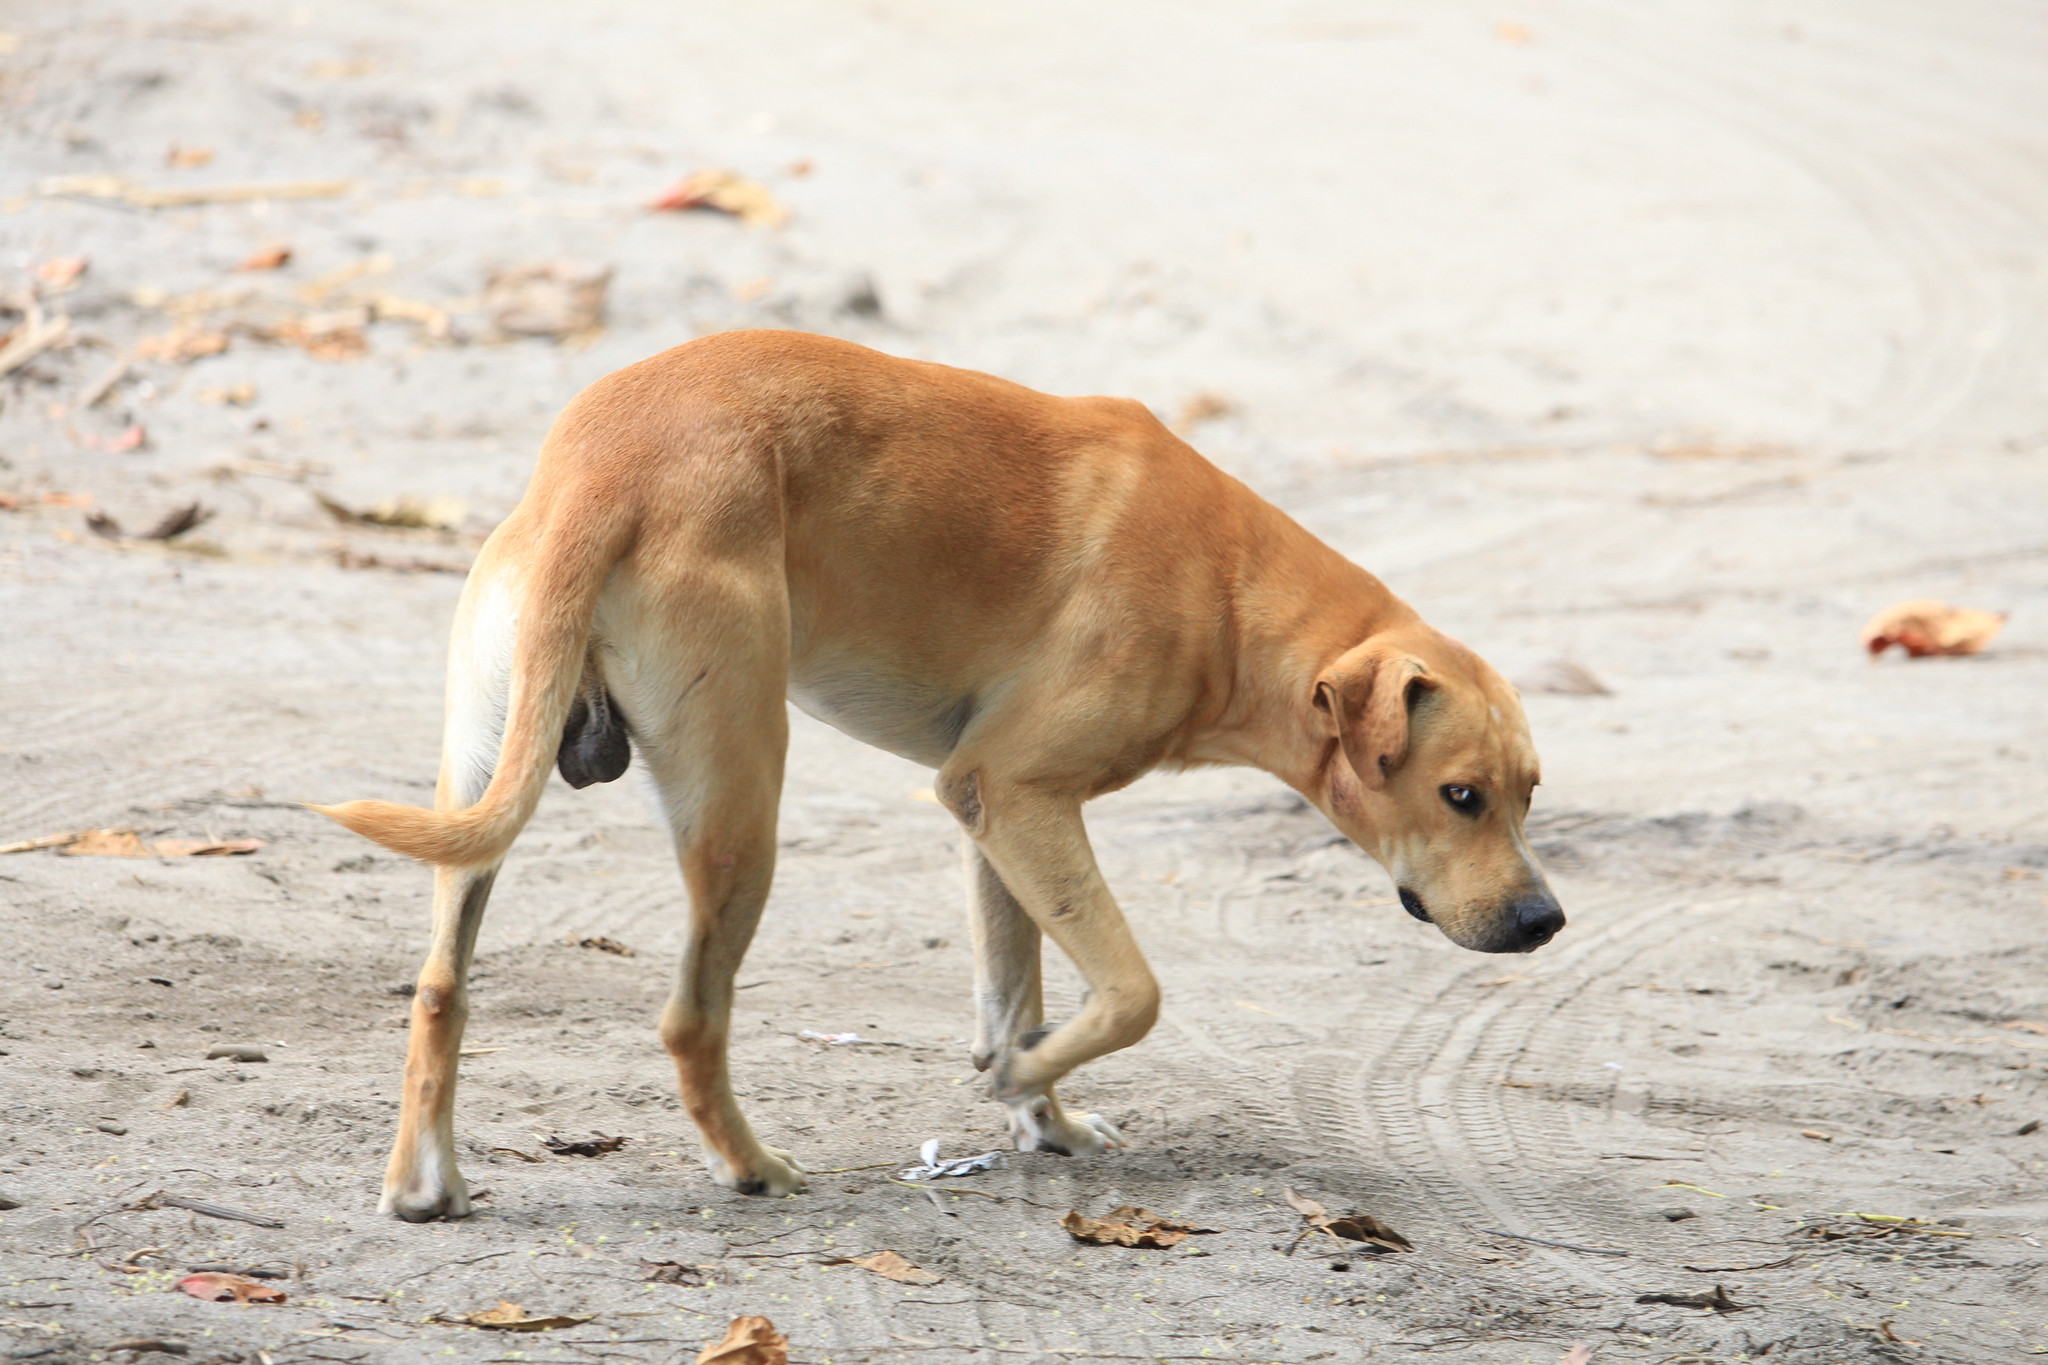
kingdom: Animalia
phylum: Chordata
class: Mammalia
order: Carnivora
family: Canidae
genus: Canis
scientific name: Canis lupus
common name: Gray wolf
